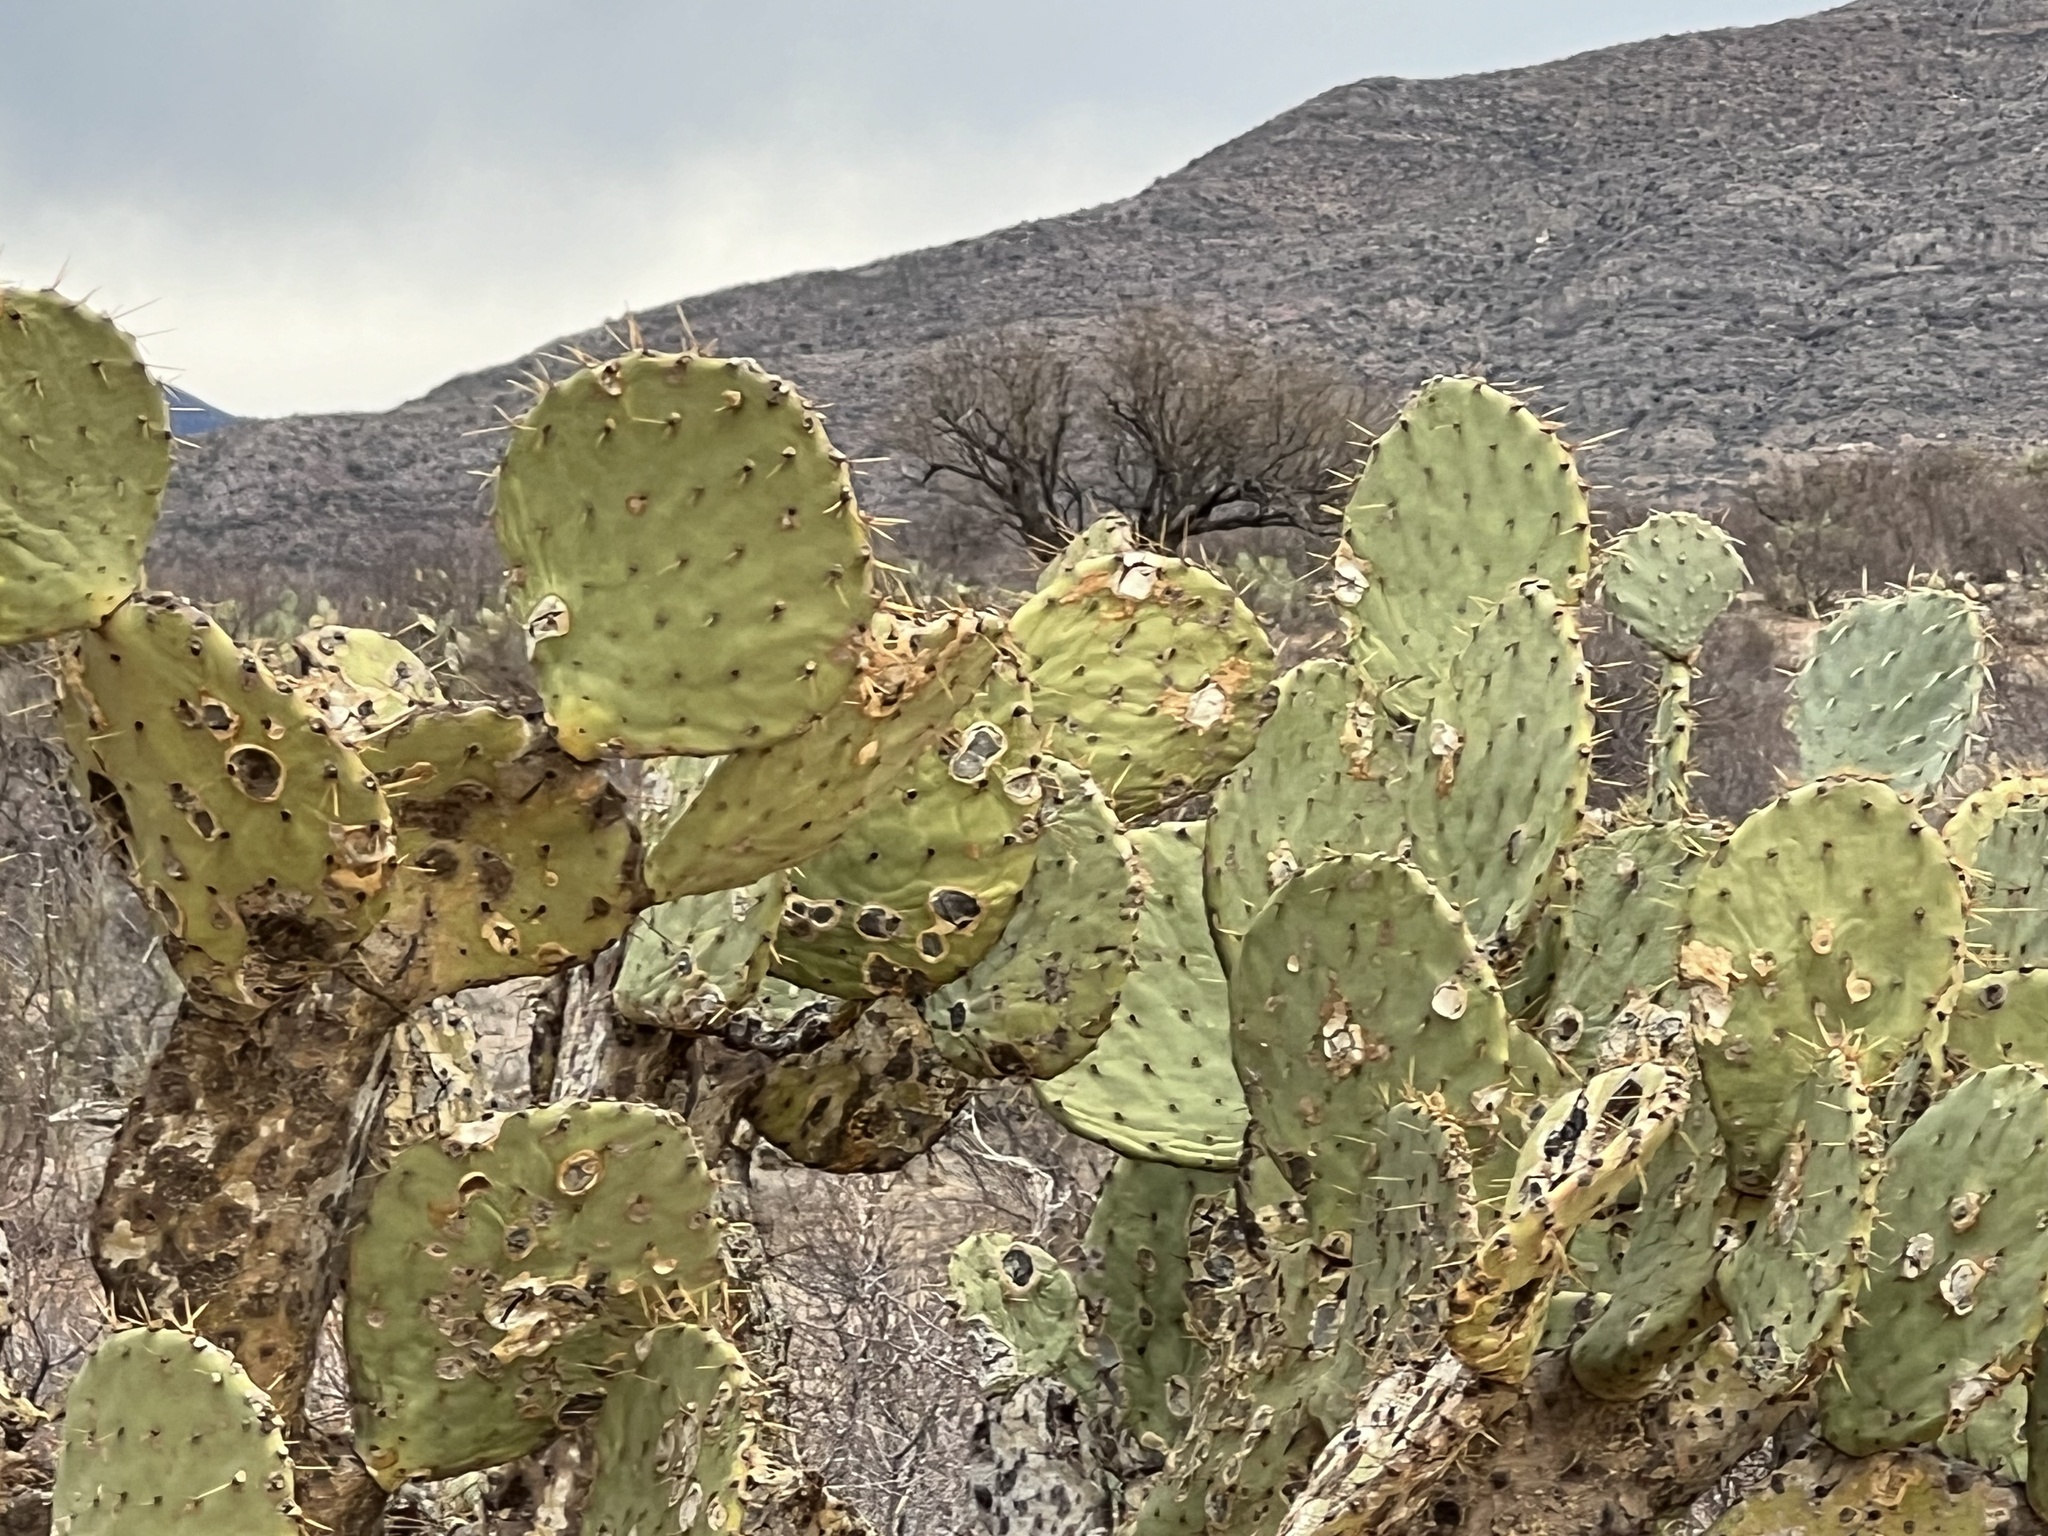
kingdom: Plantae
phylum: Tracheophyta
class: Magnoliopsida
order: Caryophyllales
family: Cactaceae
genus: Opuntia
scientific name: Opuntia engelmannii
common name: Cactus-apple
